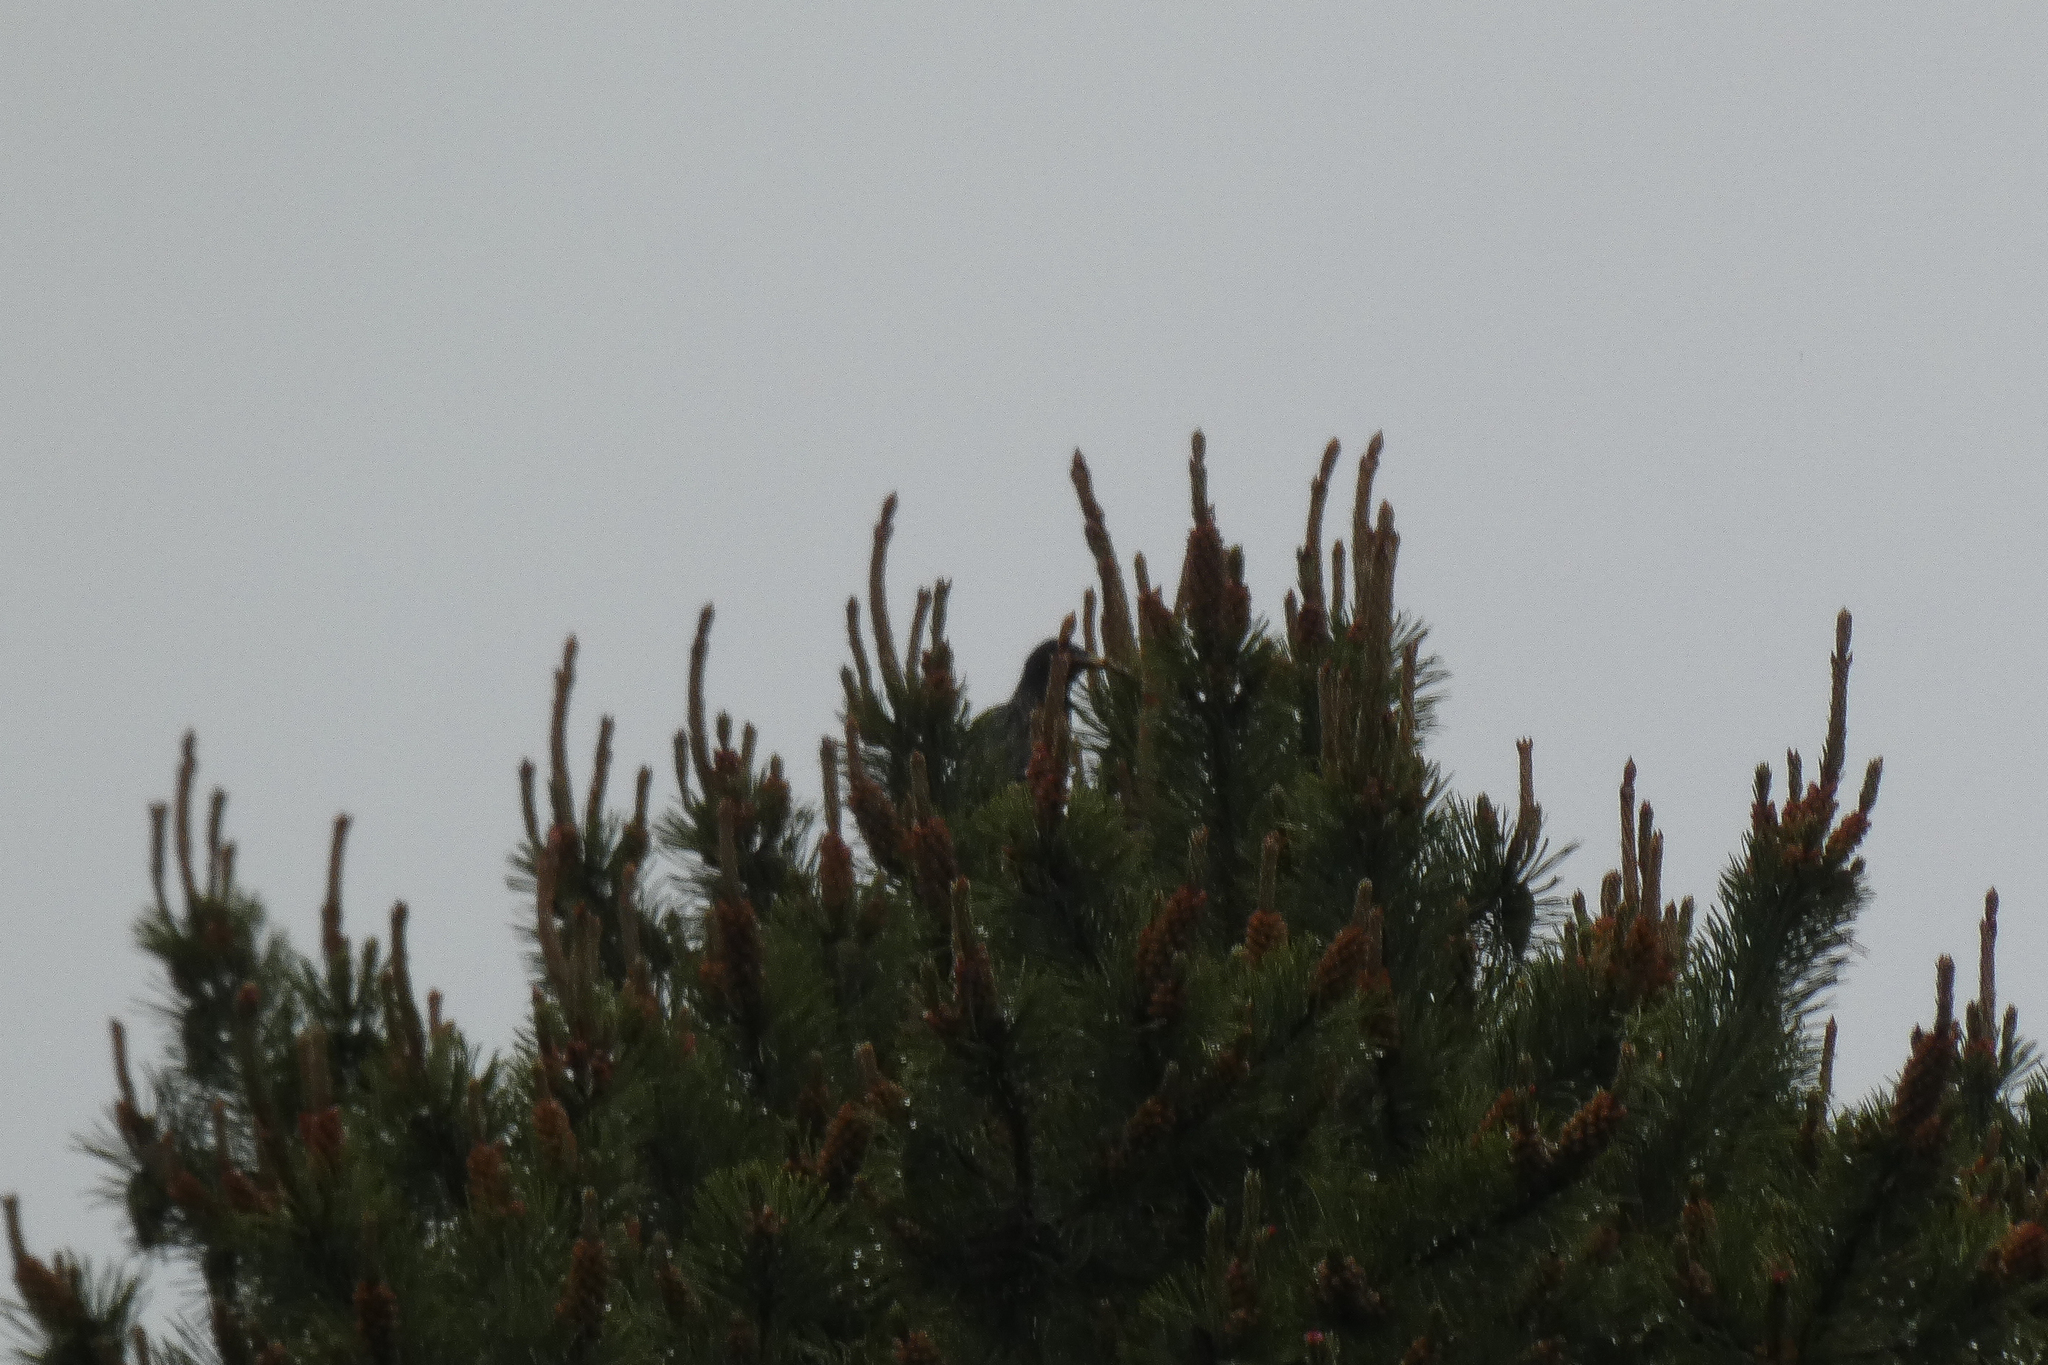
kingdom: Animalia
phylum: Chordata
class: Aves
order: Passeriformes
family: Sturnidae
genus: Sturnus
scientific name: Sturnus vulgaris
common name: Common starling
